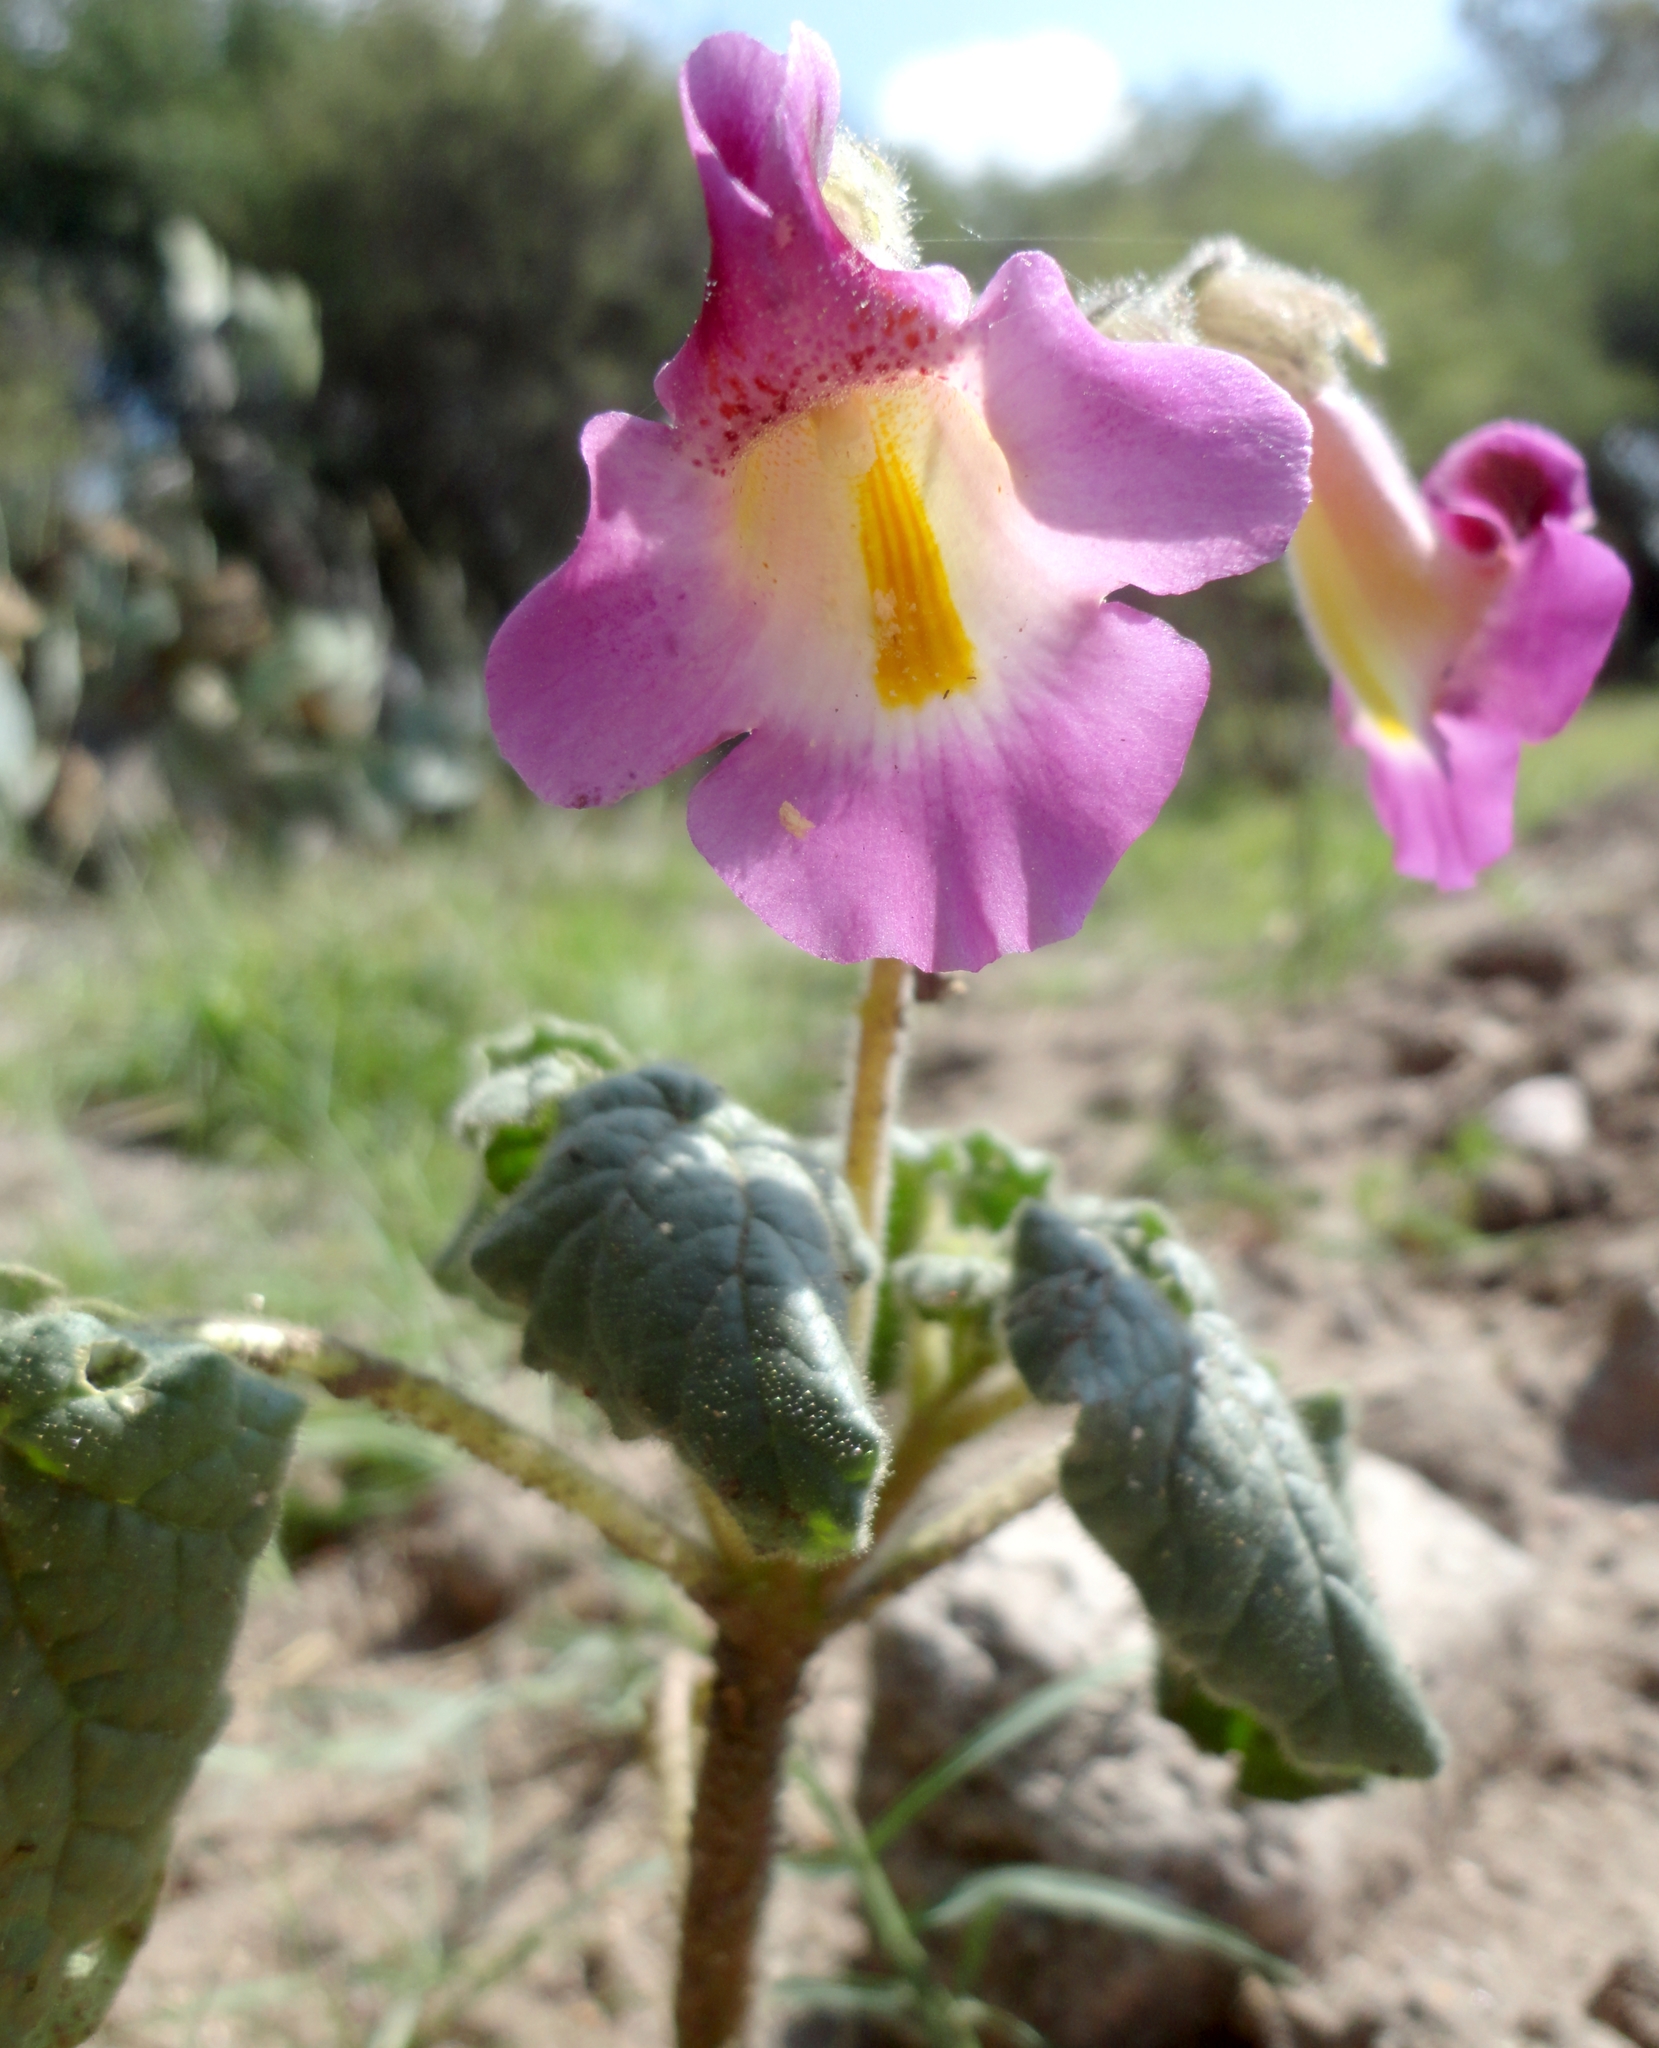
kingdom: Plantae
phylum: Tracheophyta
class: Magnoliopsida
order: Lamiales
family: Martyniaceae
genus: Proboscidea
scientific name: Proboscidea louisianica
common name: Elephant tusks
